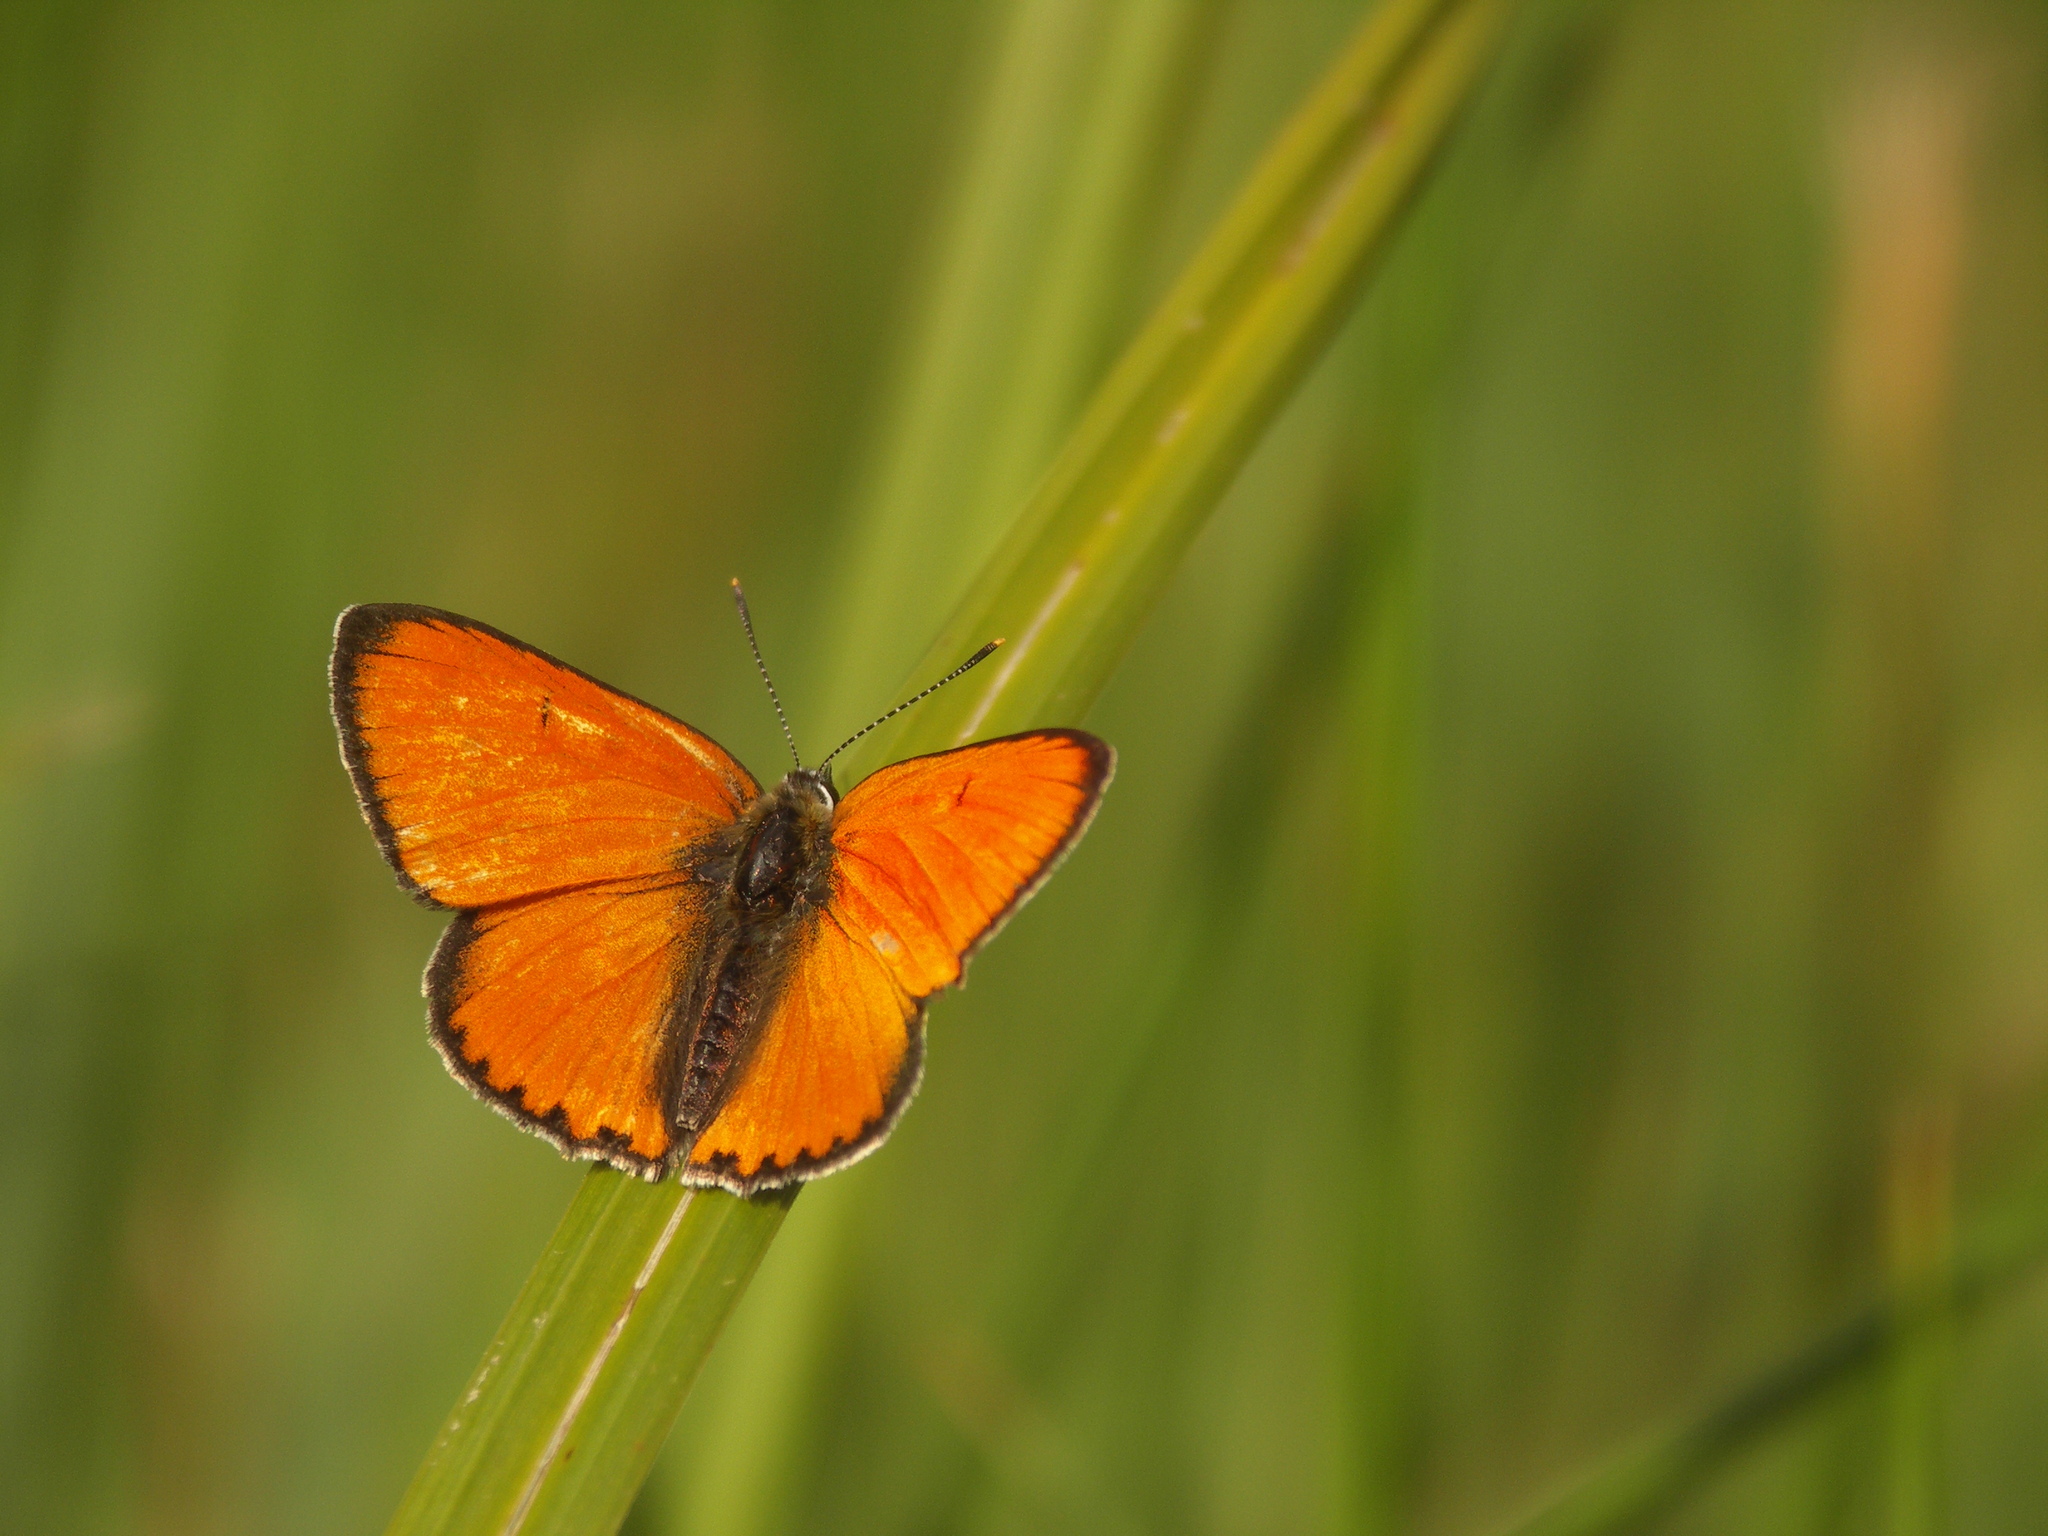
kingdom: Animalia
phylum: Arthropoda
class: Insecta
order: Lepidoptera
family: Lycaenidae
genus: Lycaena
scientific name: Lycaena dispar
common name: Large copper
